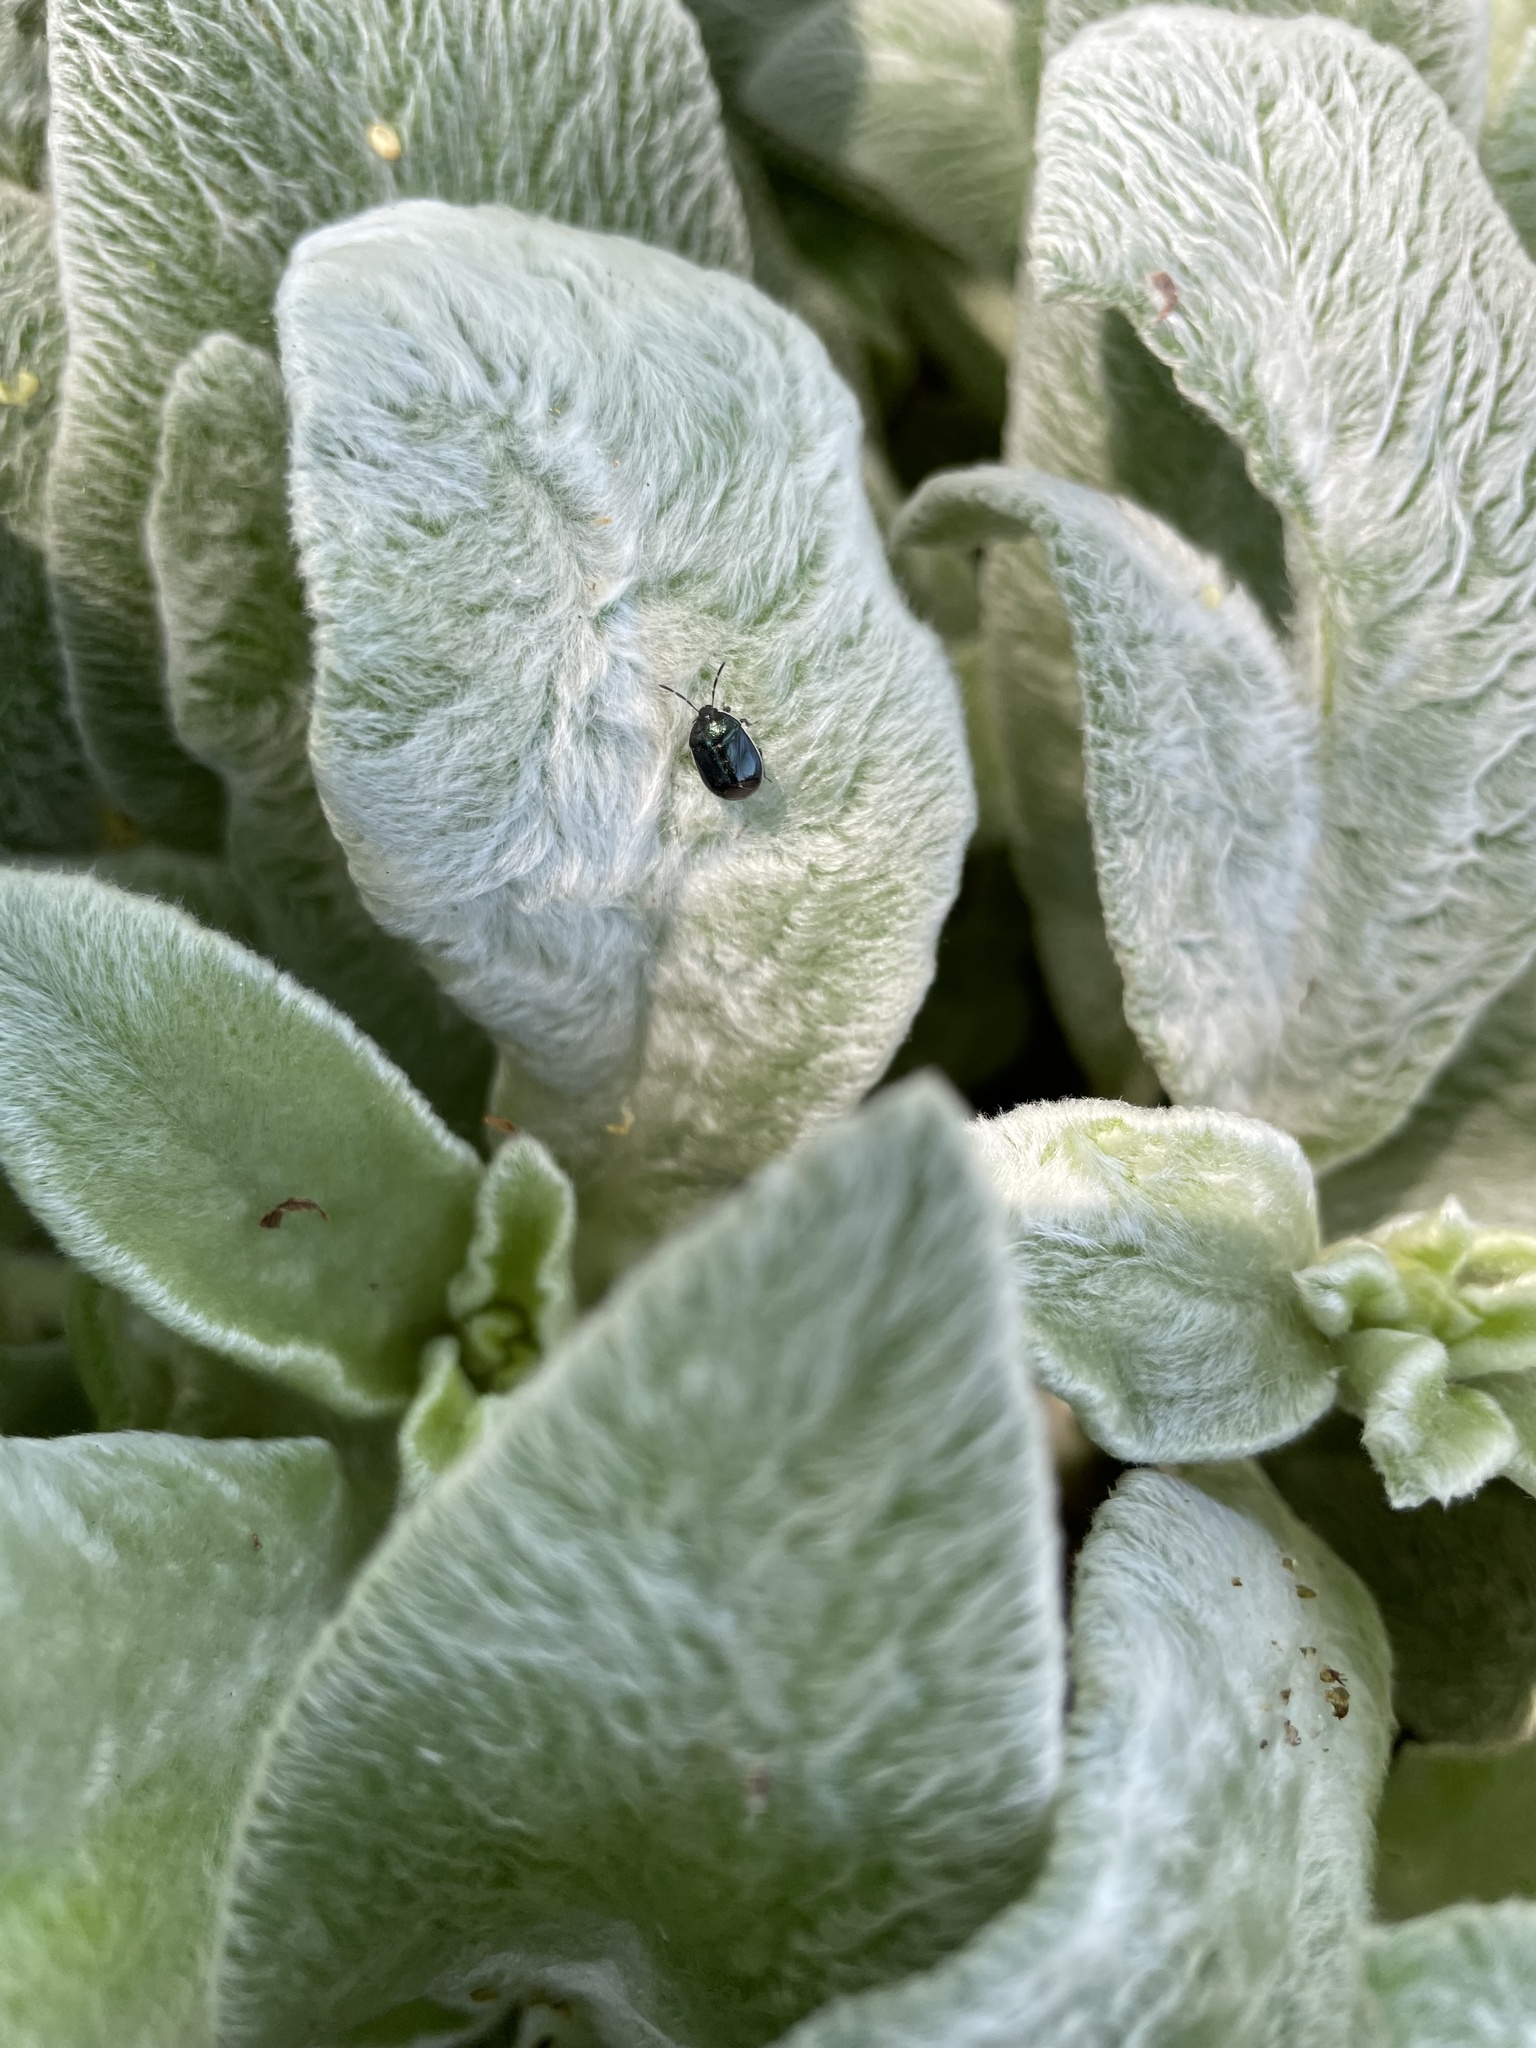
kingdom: Animalia
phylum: Arthropoda
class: Insecta
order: Hemiptera
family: Cydnidae
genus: Sehirus
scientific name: Sehirus cinctus
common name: White-margined burrower bug
